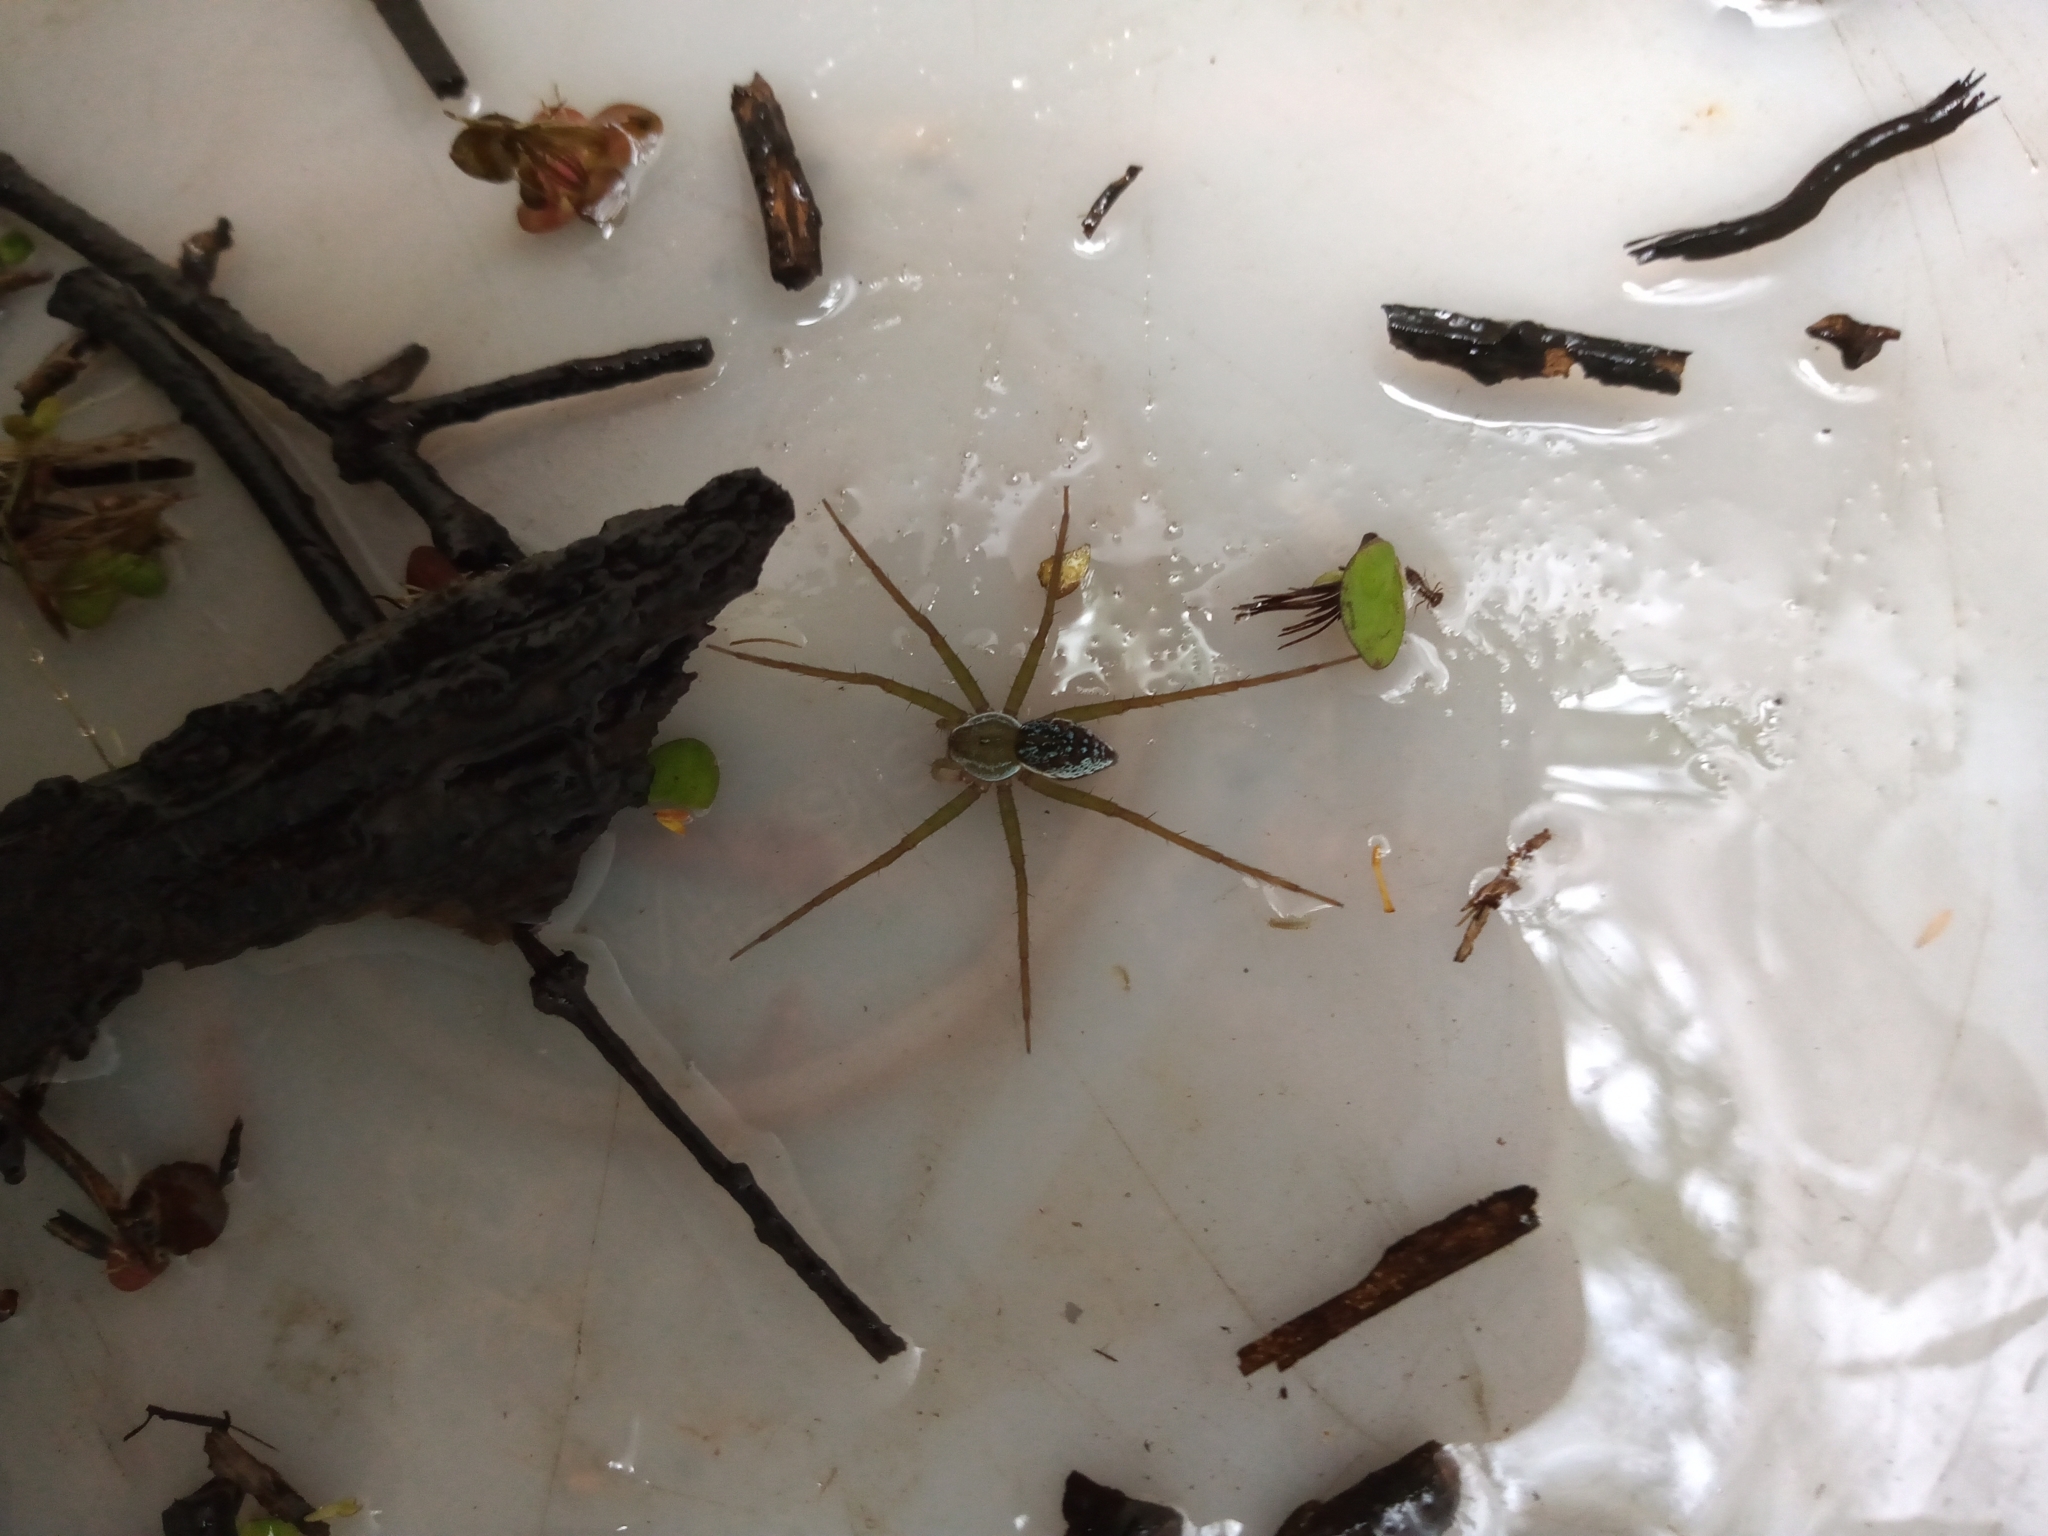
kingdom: Animalia
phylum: Arthropoda
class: Arachnida
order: Araneae
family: Pisauridae
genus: Thaumasia
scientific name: Thaumasia velox
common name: Nursery web spiders
